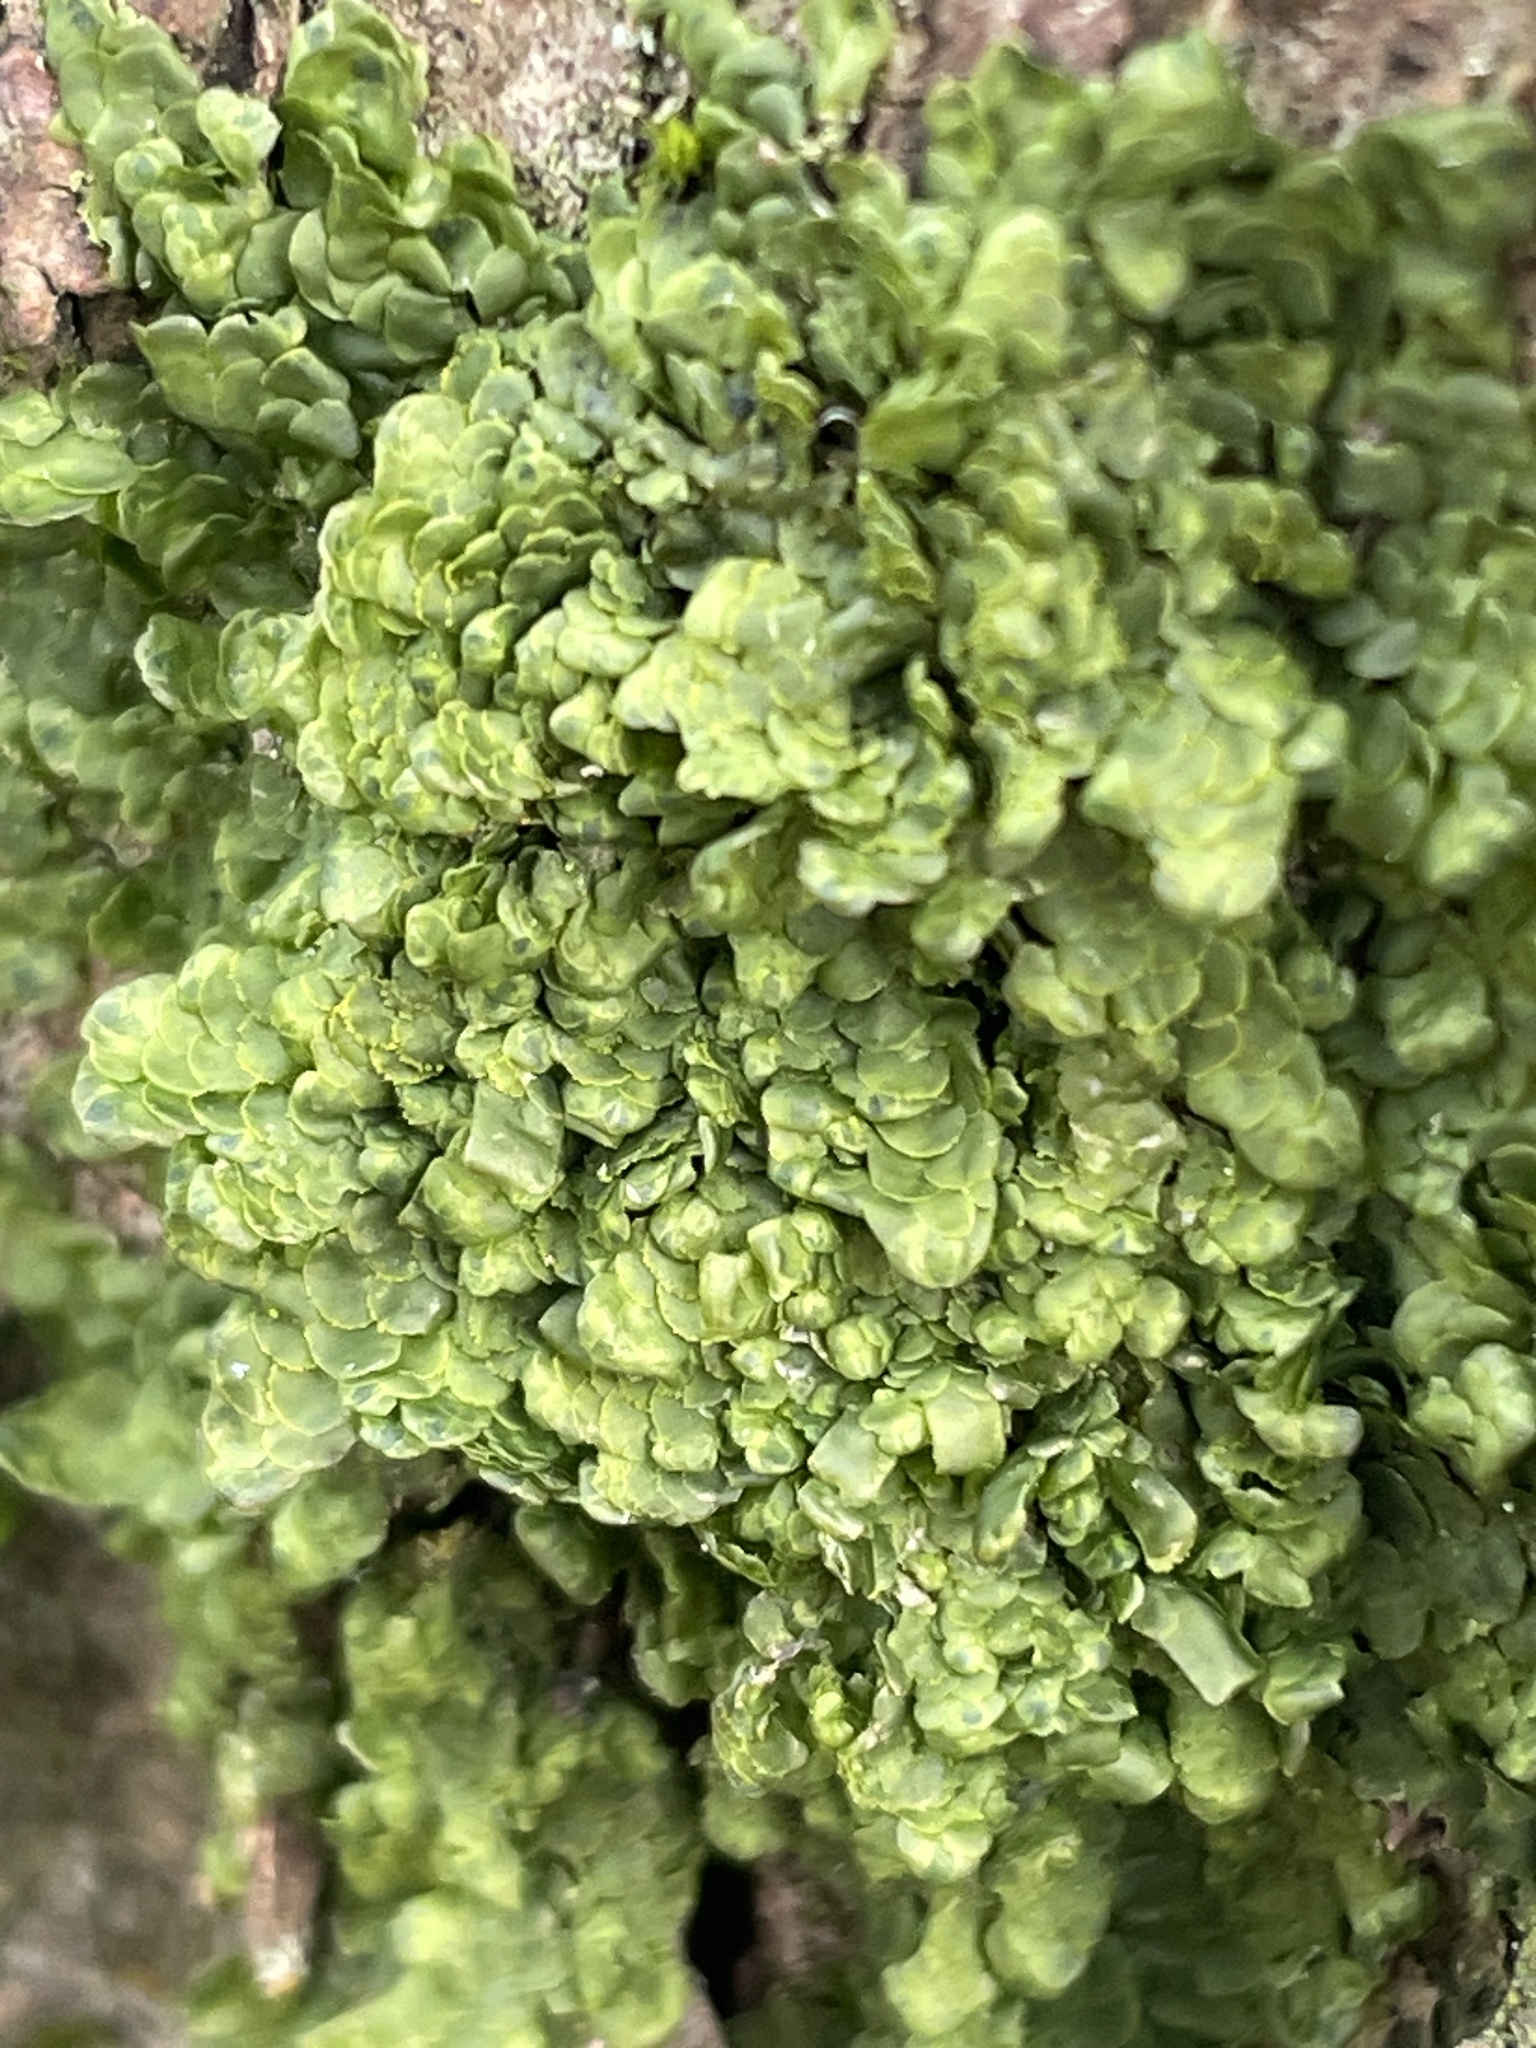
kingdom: Plantae
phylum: Marchantiophyta
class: Jungermanniopsida
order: Porellales
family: Radulaceae
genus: Radula
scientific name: Radula complanata
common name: Flat-leaved scalewort
